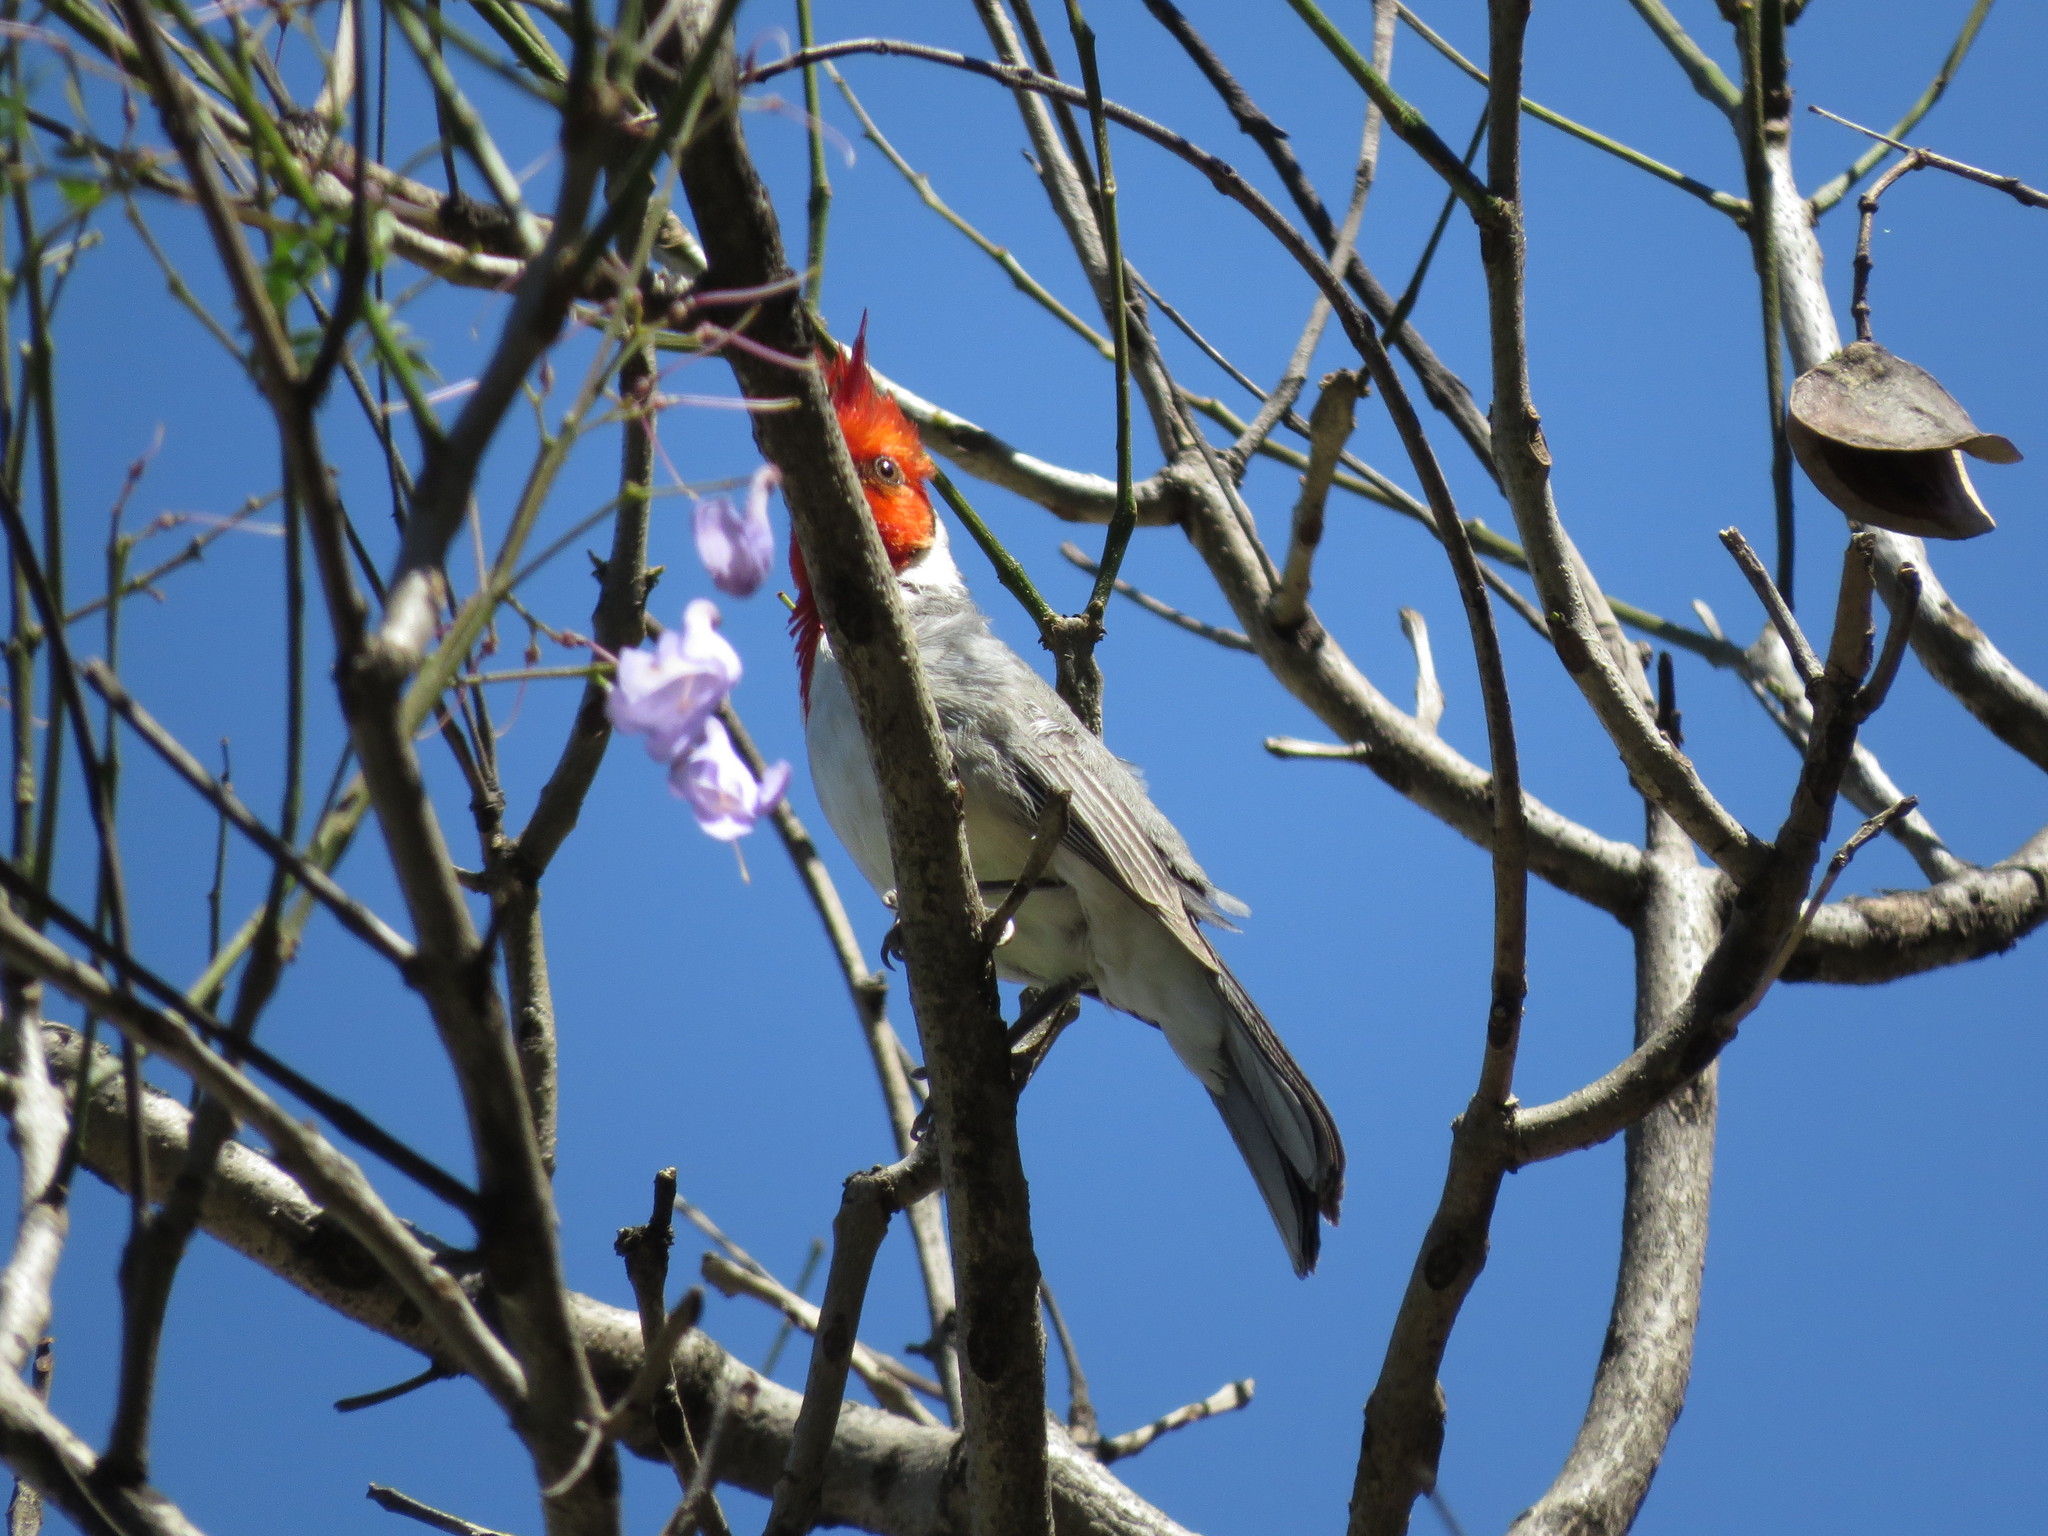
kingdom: Animalia
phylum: Chordata
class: Aves
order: Passeriformes
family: Thraupidae
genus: Paroaria
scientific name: Paroaria coronata
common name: Red-crested cardinal
